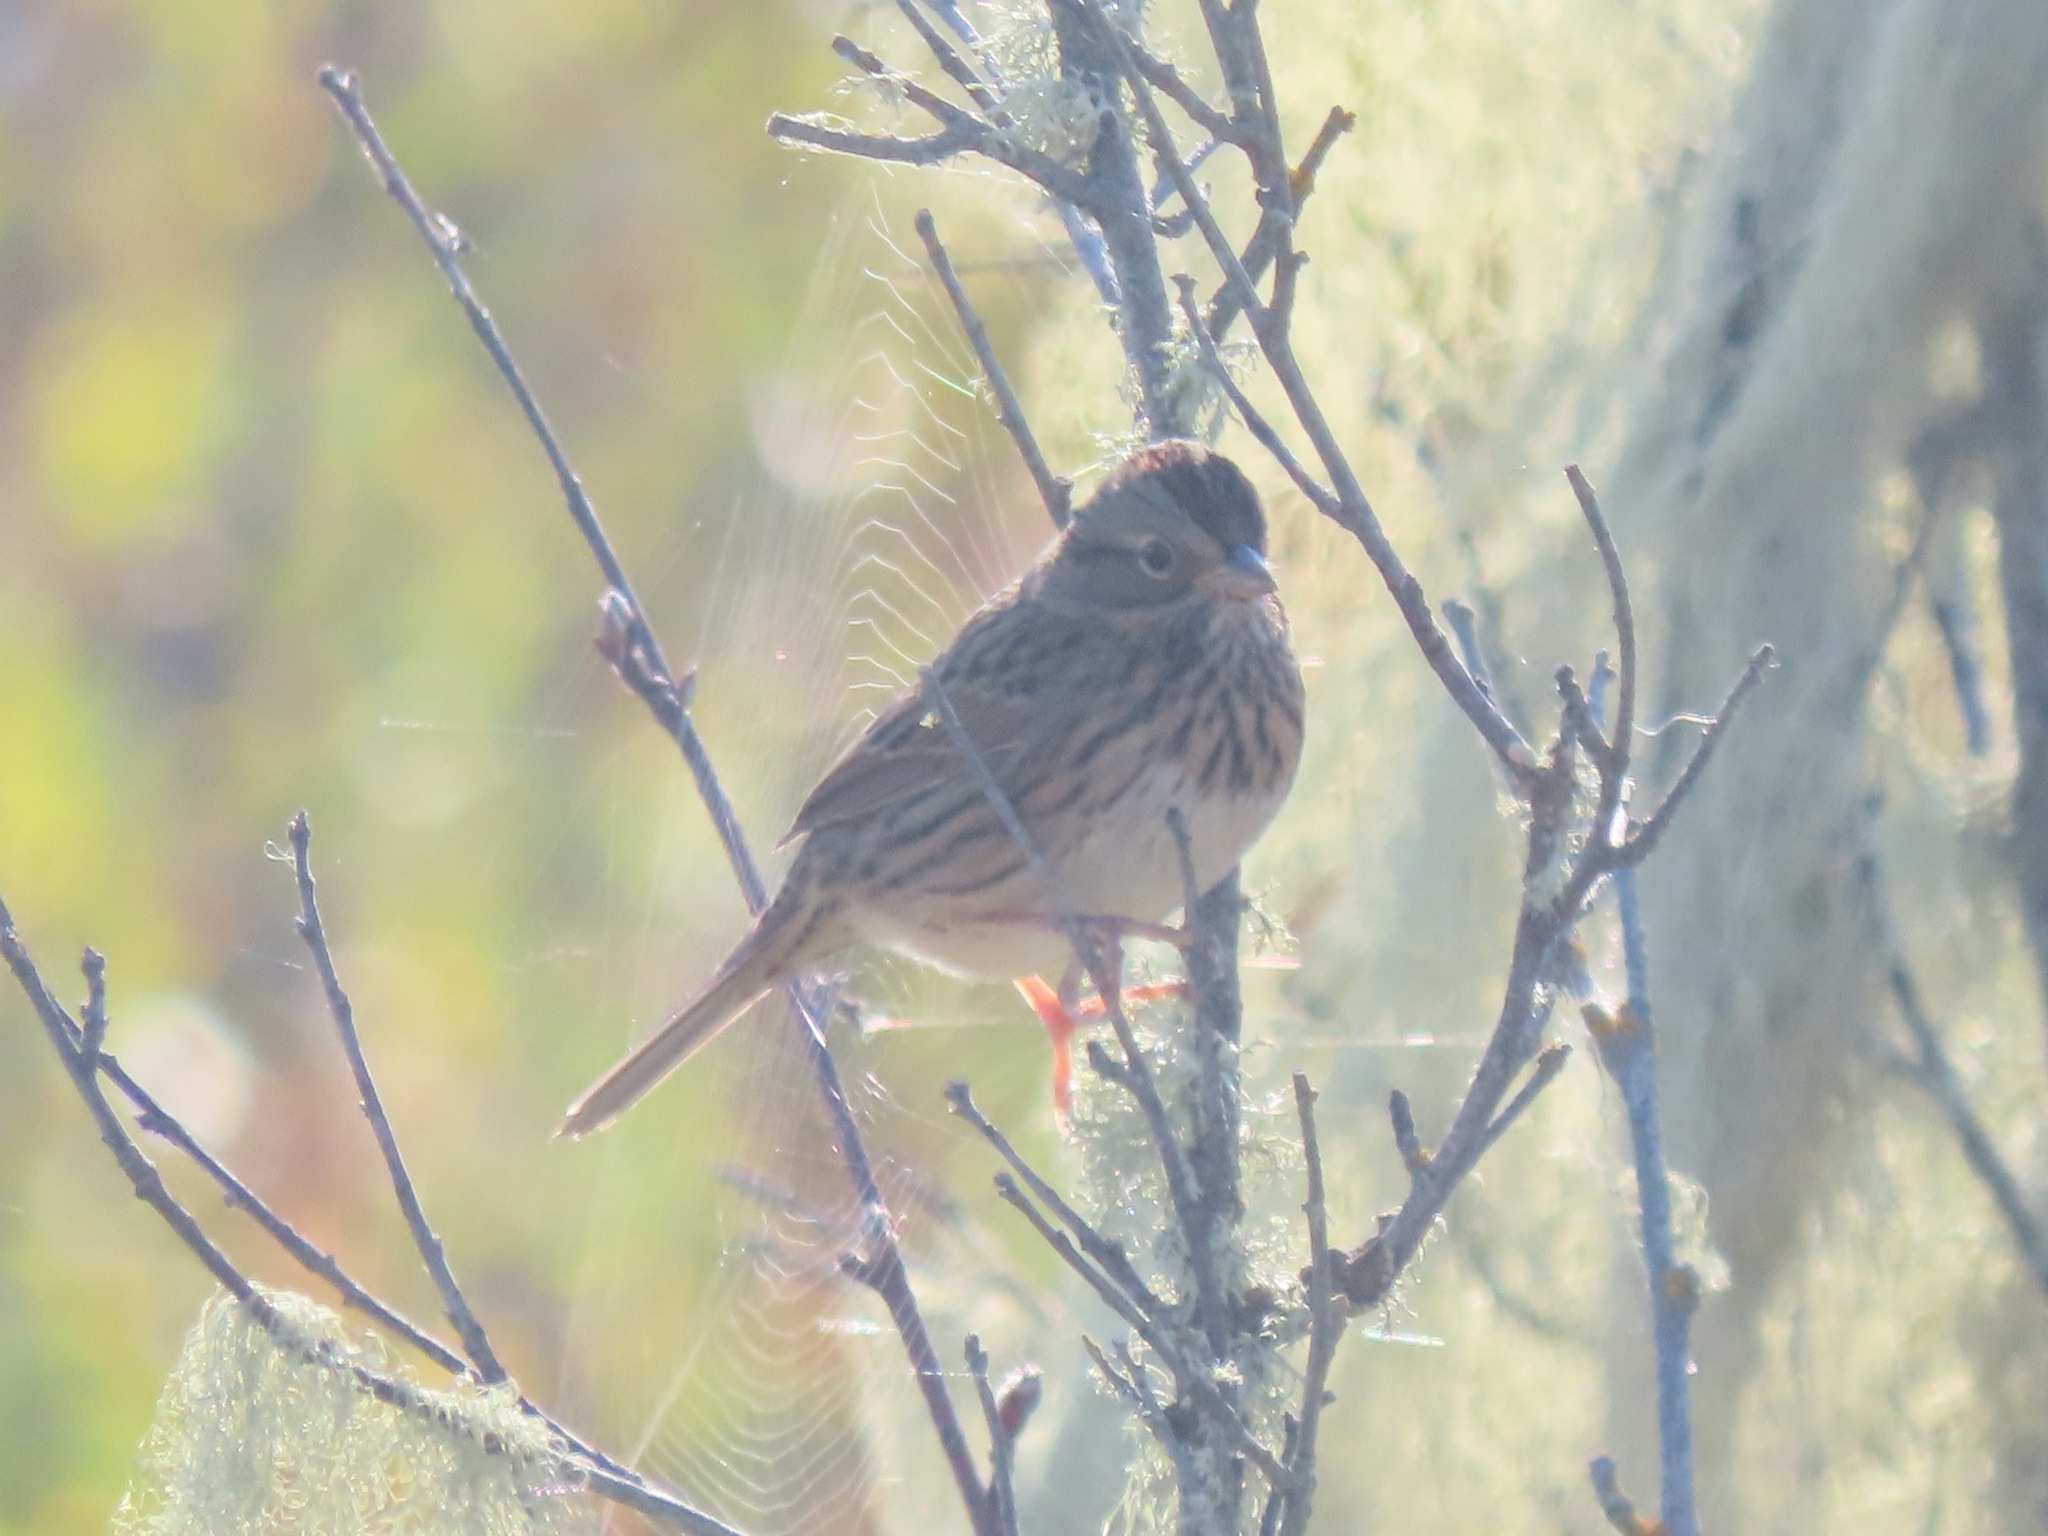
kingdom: Animalia
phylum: Chordata
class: Aves
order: Passeriformes
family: Passerellidae
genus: Melospiza
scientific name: Melospiza lincolnii
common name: Lincoln's sparrow
